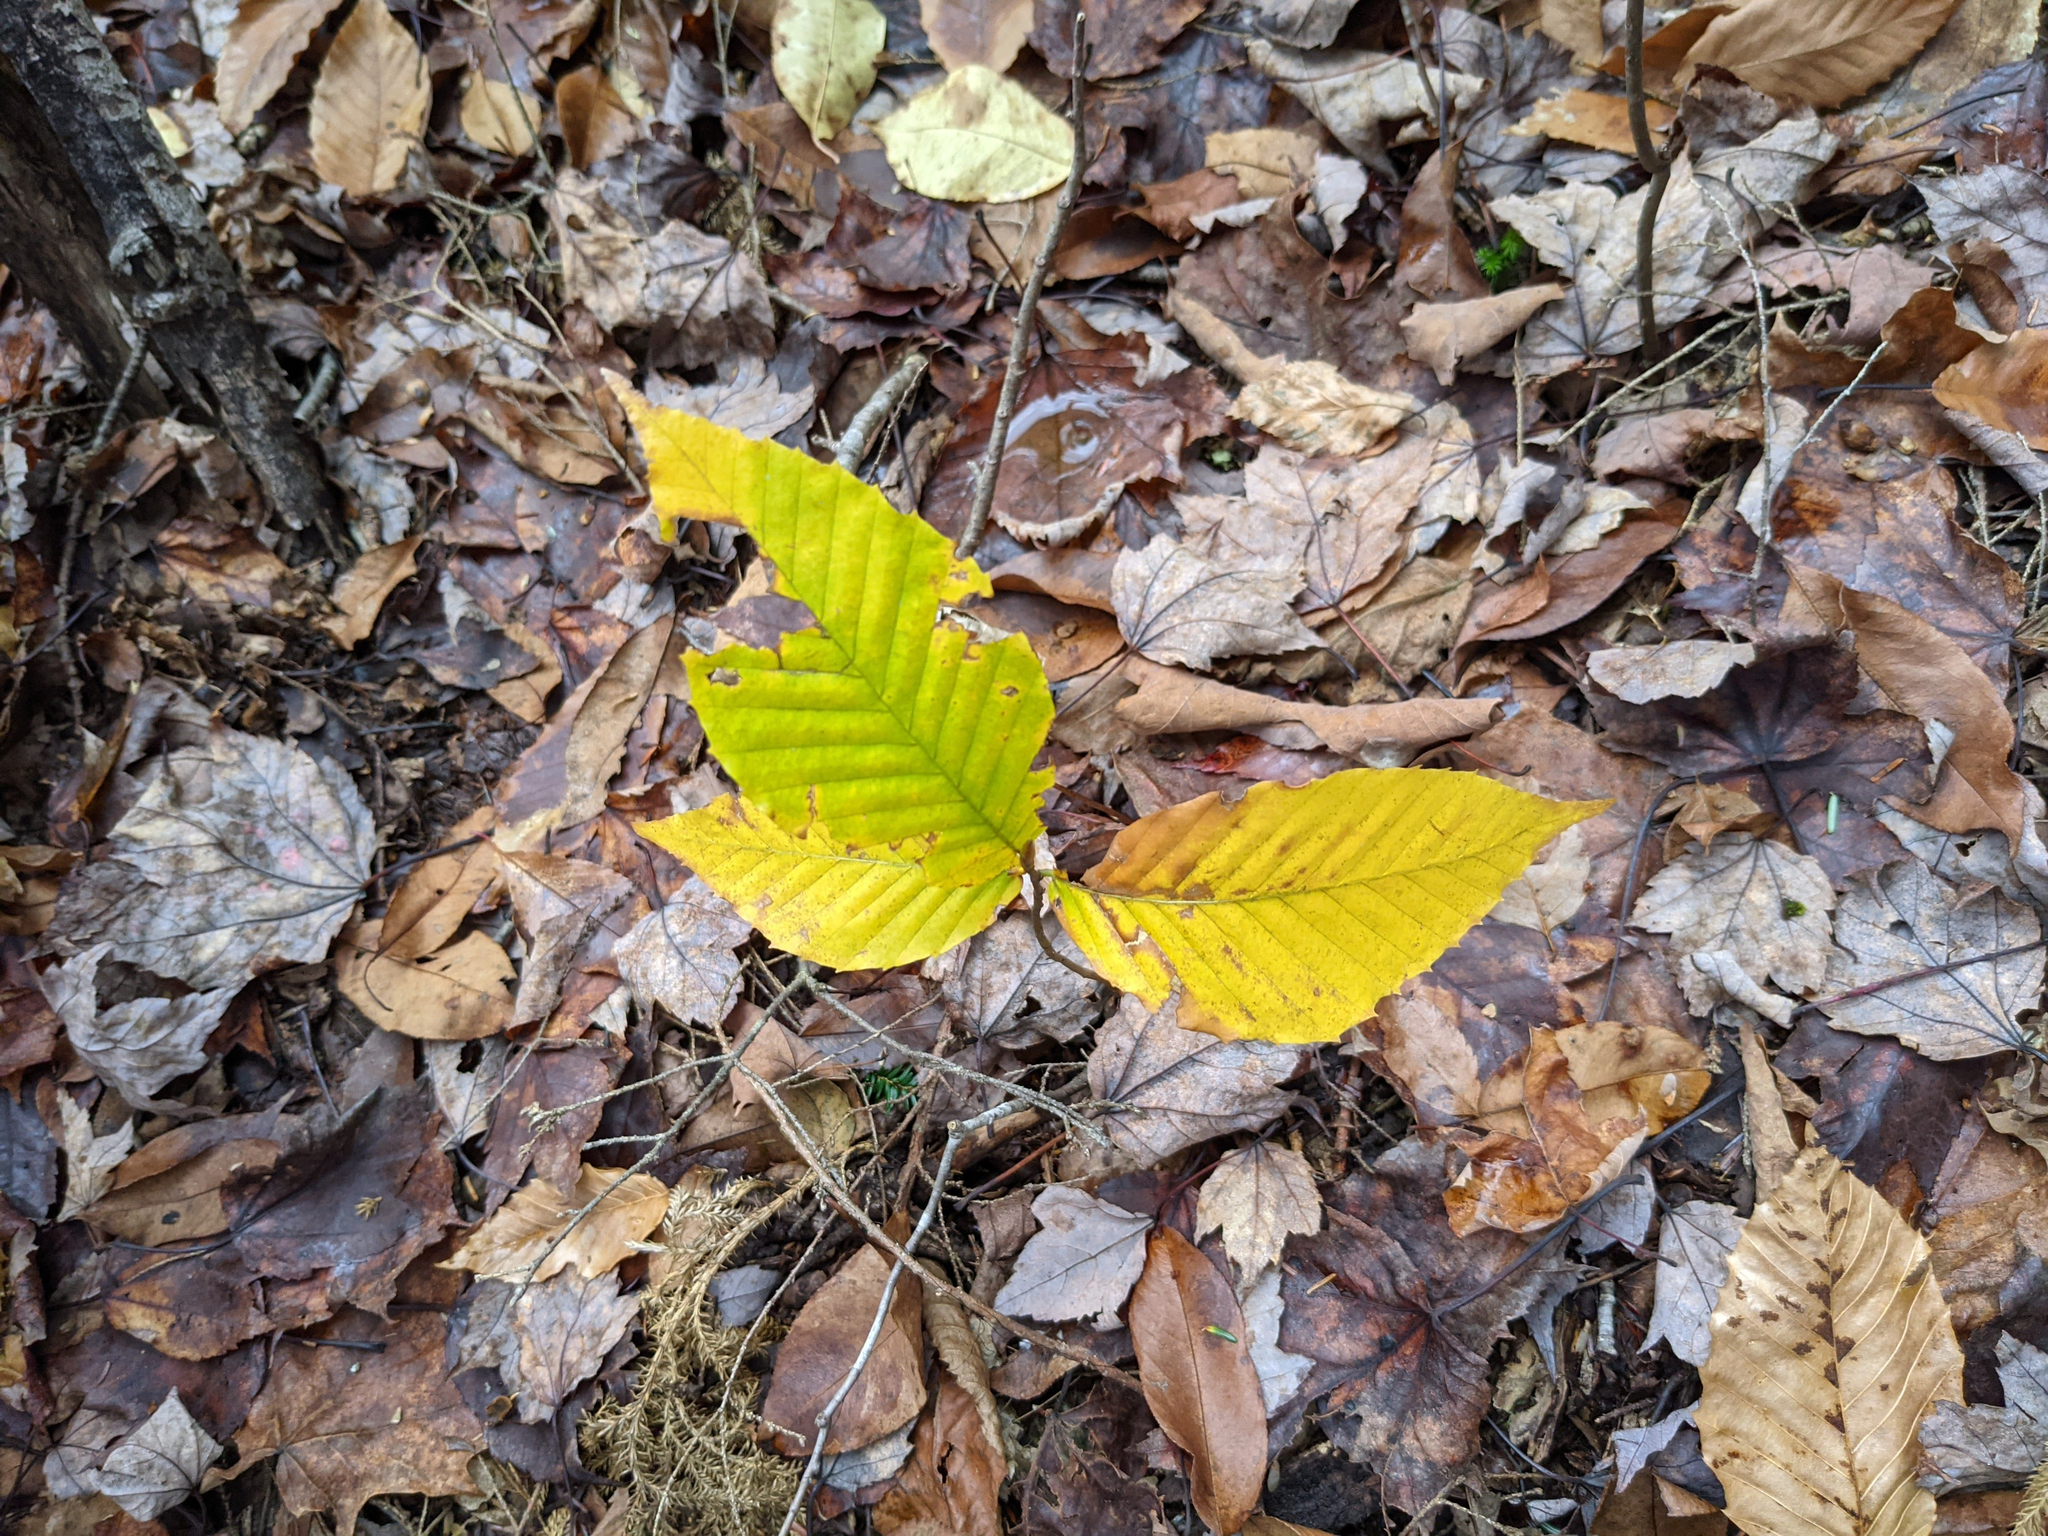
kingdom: Plantae
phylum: Tracheophyta
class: Magnoliopsida
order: Fagales
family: Fagaceae
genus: Fagus
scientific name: Fagus grandifolia
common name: American beech
